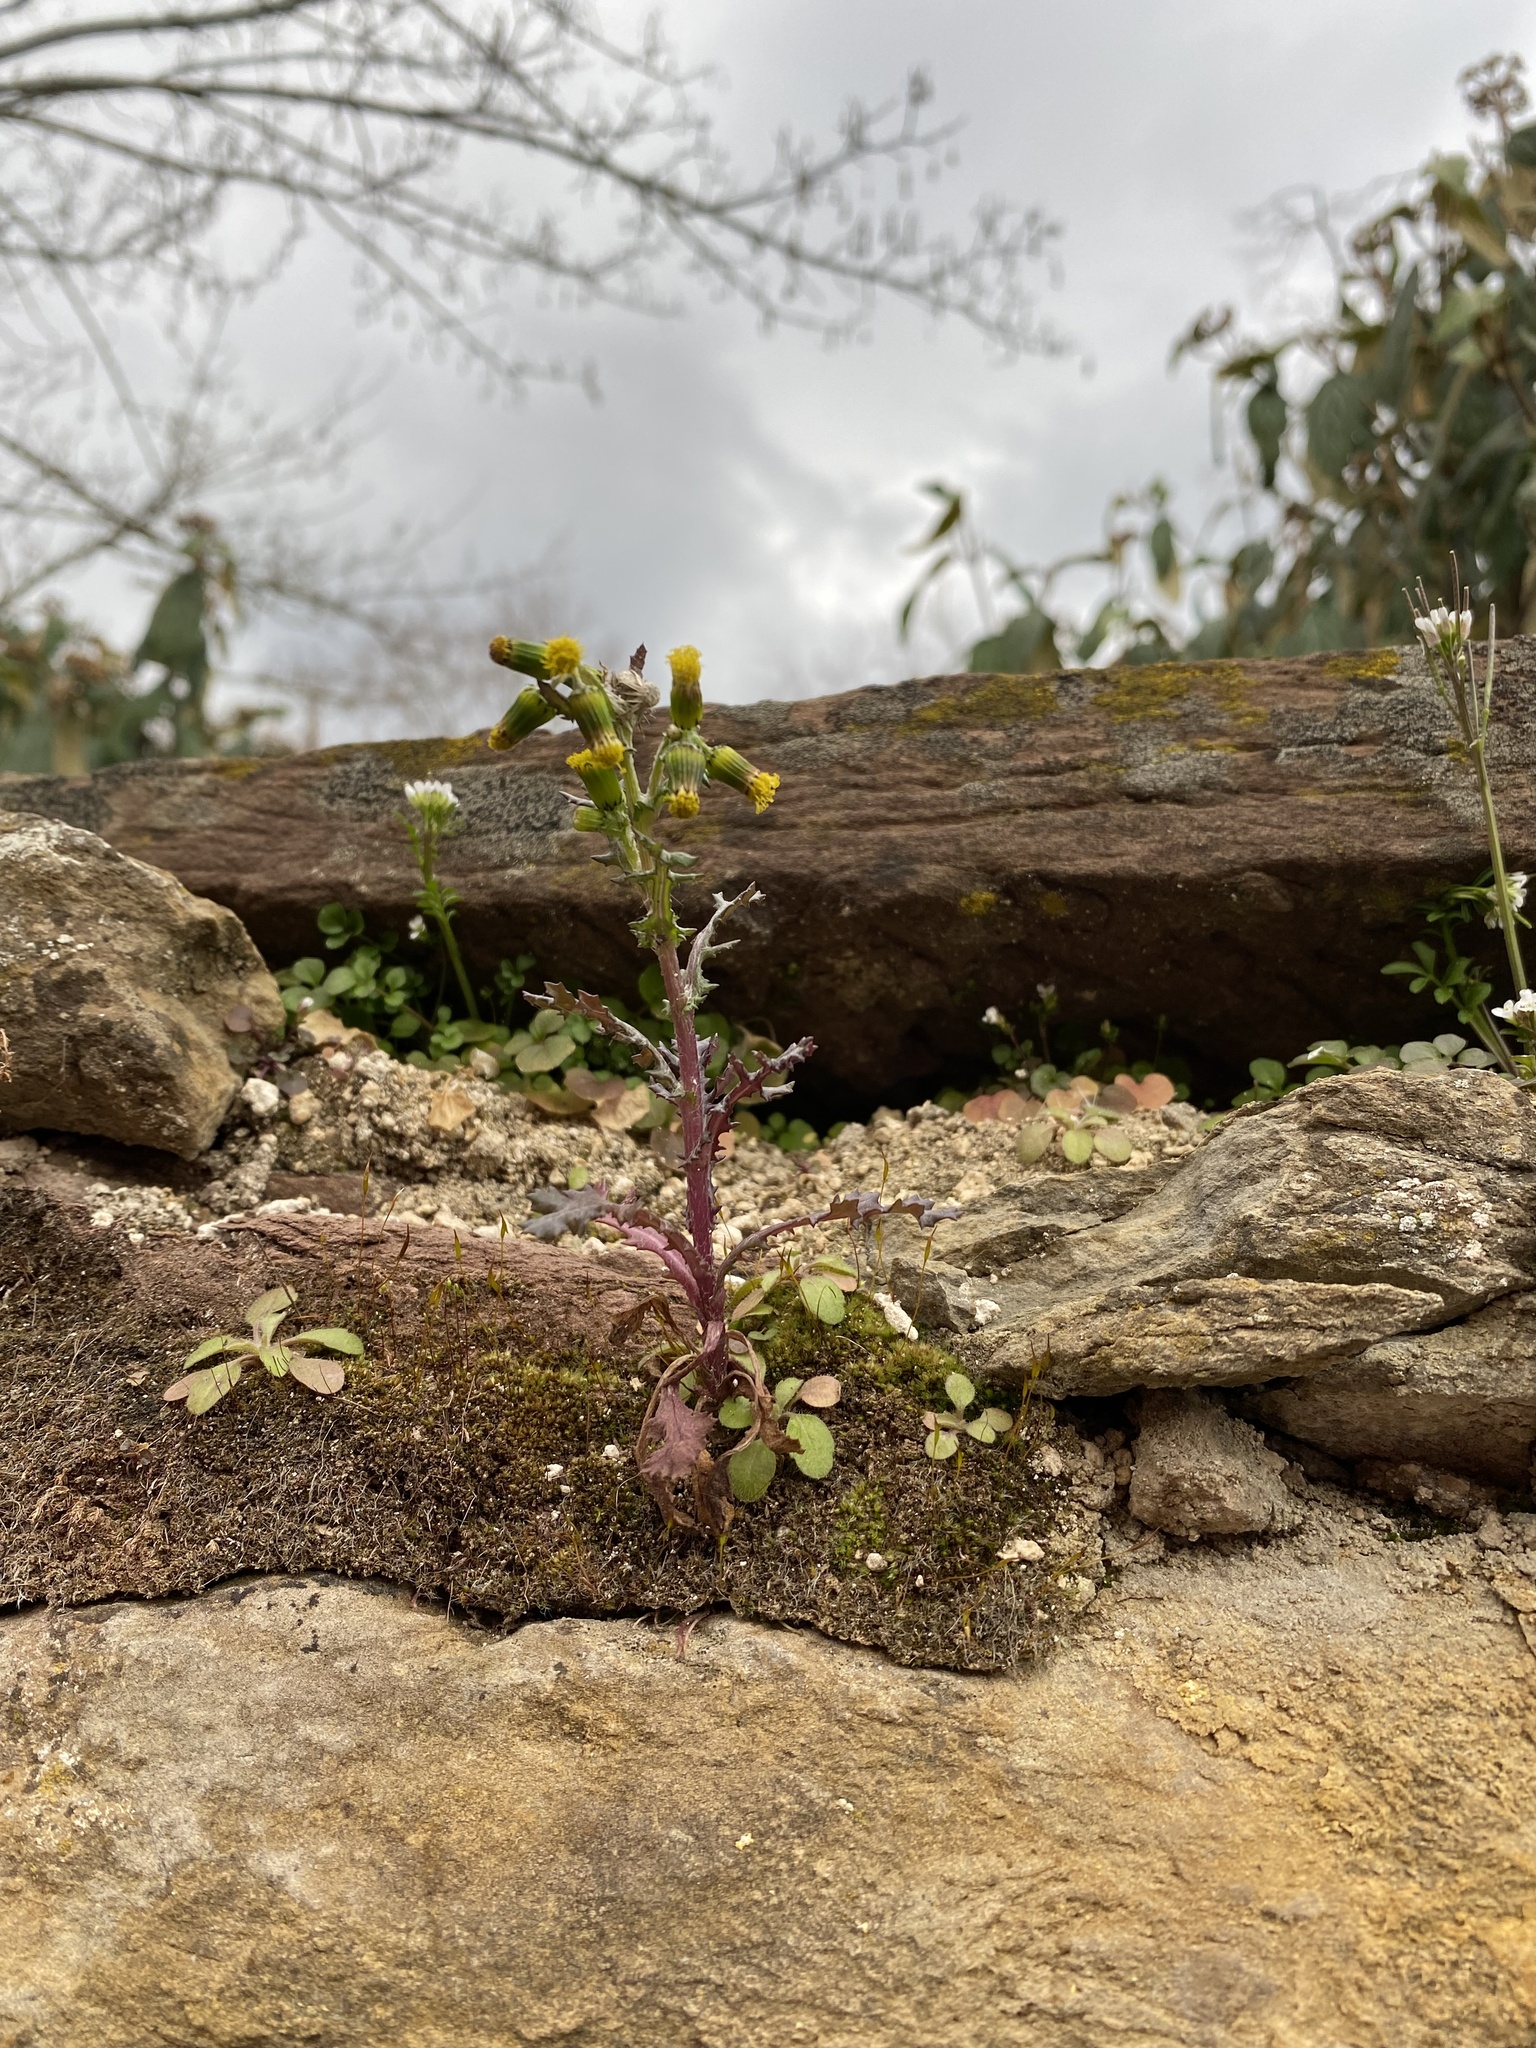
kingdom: Plantae
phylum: Tracheophyta
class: Magnoliopsida
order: Asterales
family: Asteraceae
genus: Senecio
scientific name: Senecio vulgaris
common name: Old-man-in-the-spring
